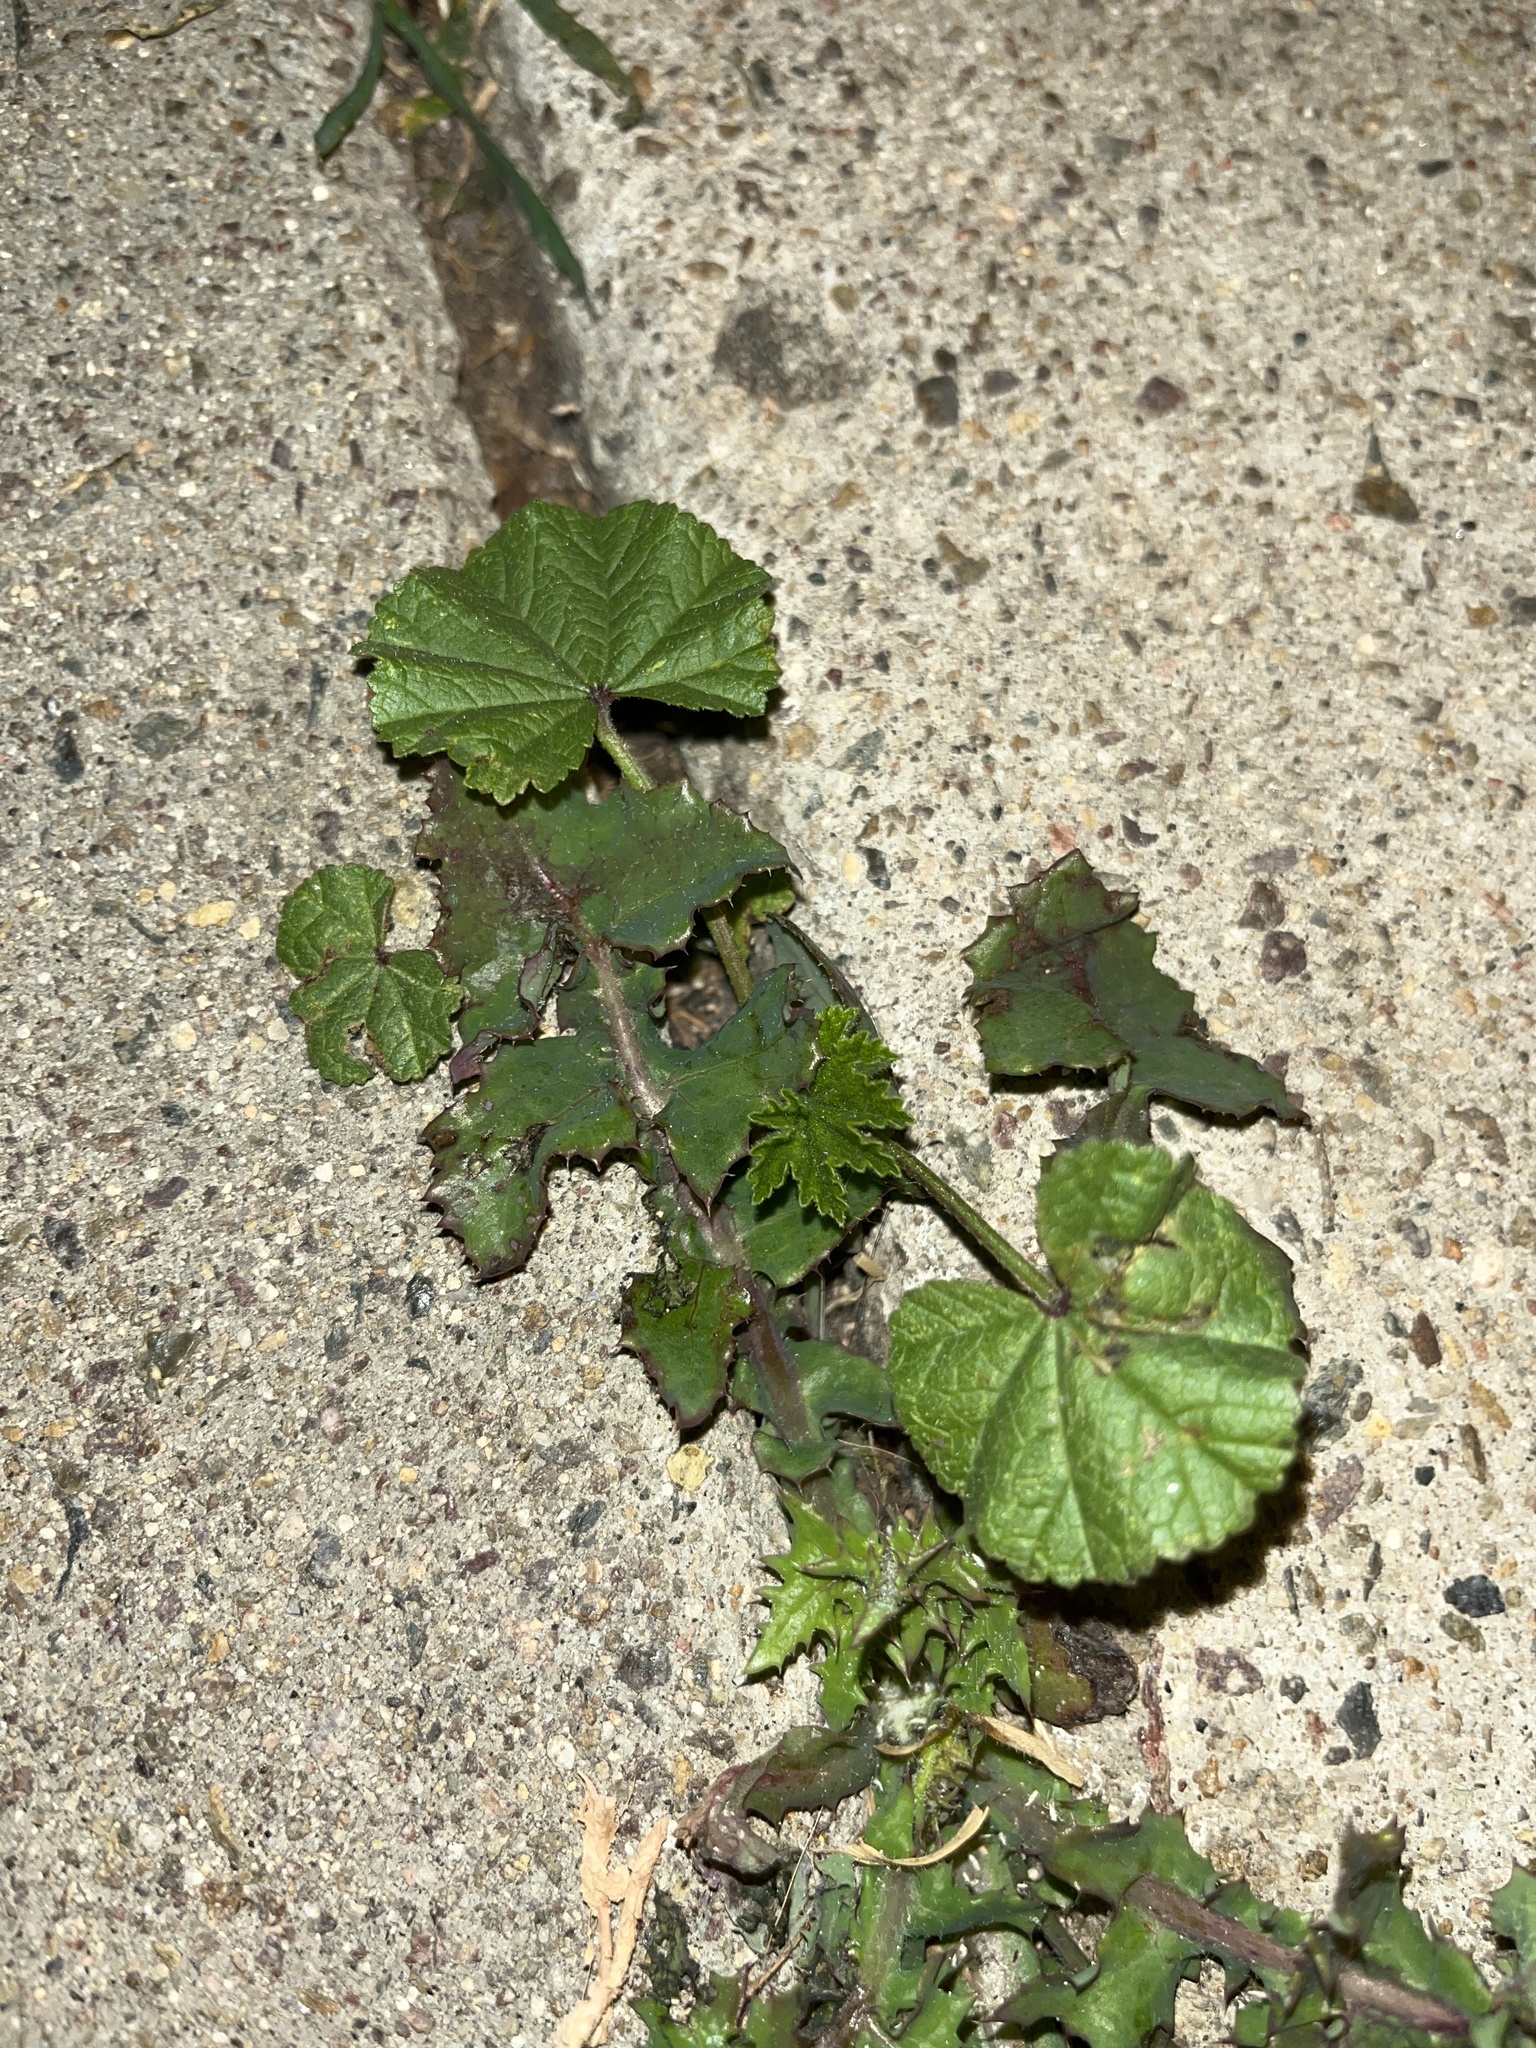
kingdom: Plantae
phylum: Tracheophyta
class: Magnoliopsida
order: Malvales
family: Malvaceae
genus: Malva
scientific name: Malva
